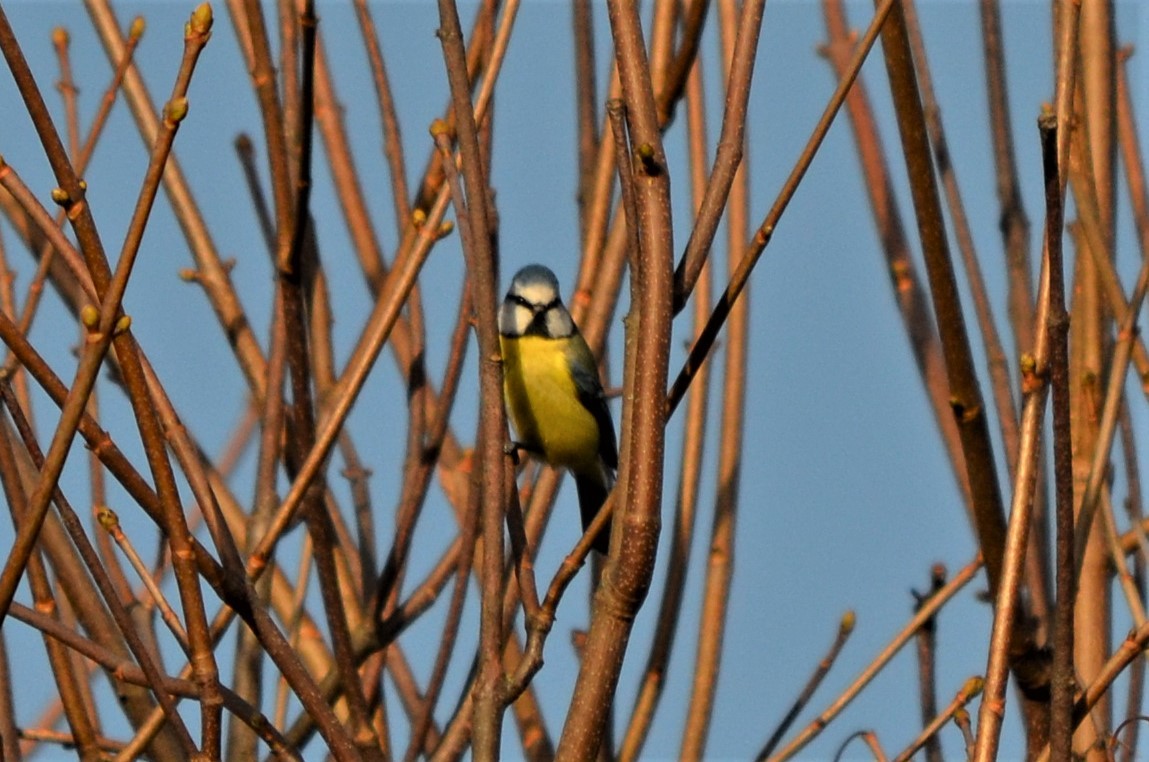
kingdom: Animalia
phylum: Chordata
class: Aves
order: Passeriformes
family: Paridae
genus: Cyanistes
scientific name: Cyanistes caeruleus
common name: Eurasian blue tit
